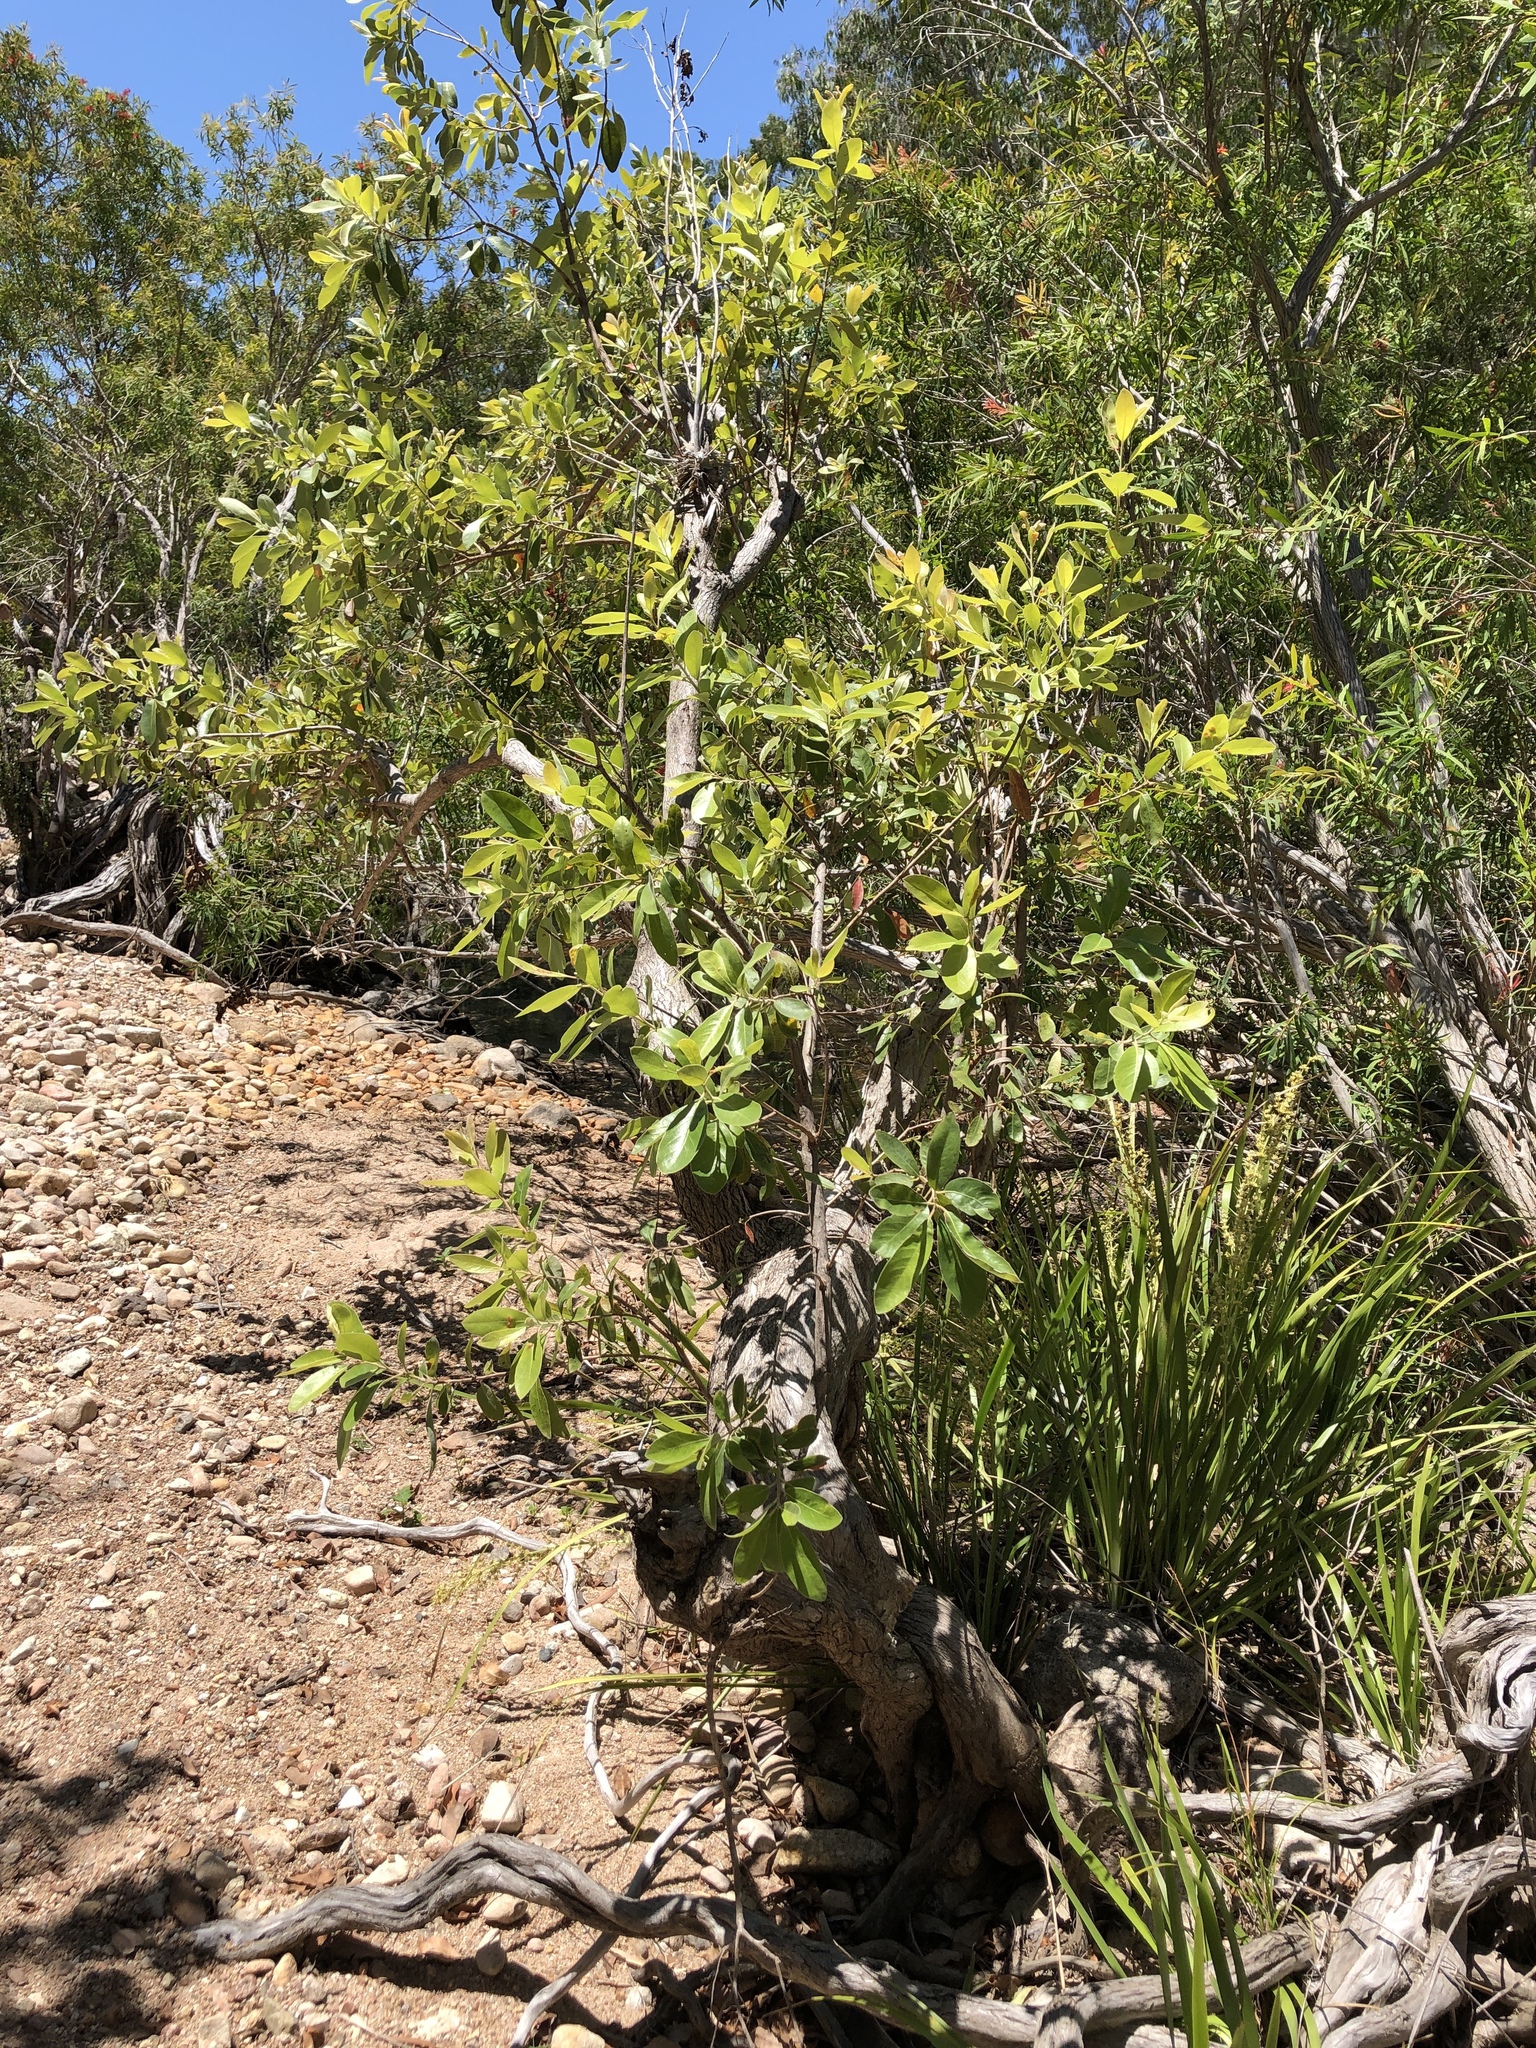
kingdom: Plantae
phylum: Tracheophyta
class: Magnoliopsida
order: Myrtales
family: Myrtaceae
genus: Lophostemon
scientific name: Lophostemon grandiflorus
